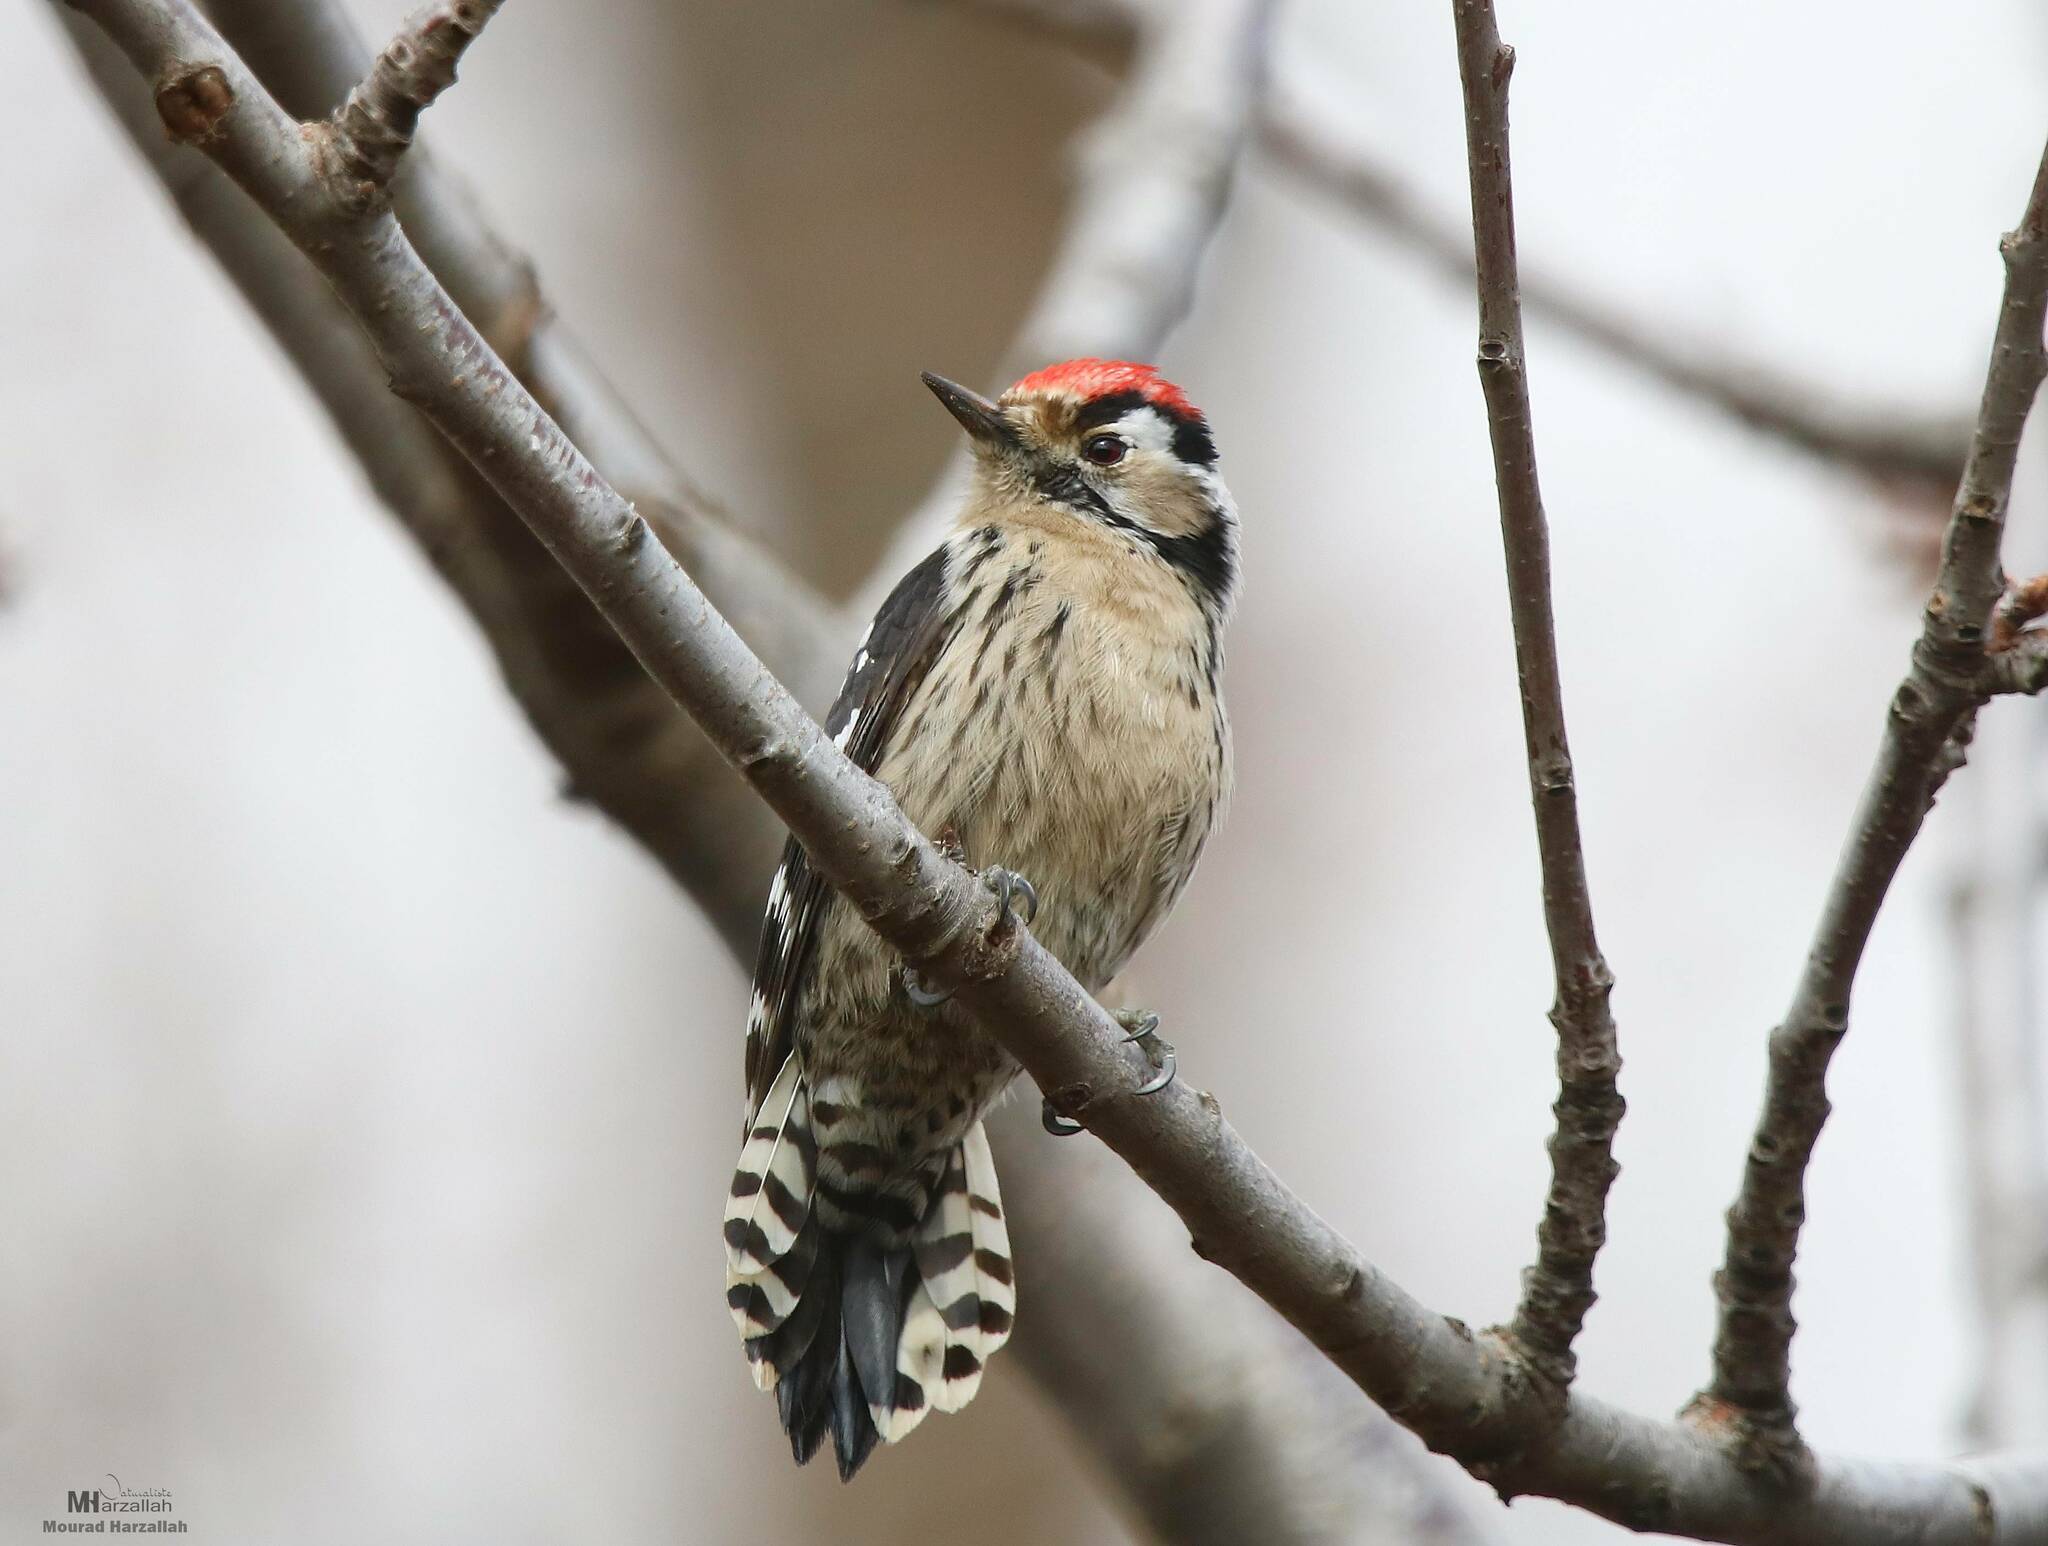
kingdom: Animalia
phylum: Chordata
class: Aves
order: Piciformes
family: Picidae
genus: Dryobates
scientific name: Dryobates minor
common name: Lesser spotted woodpecker
